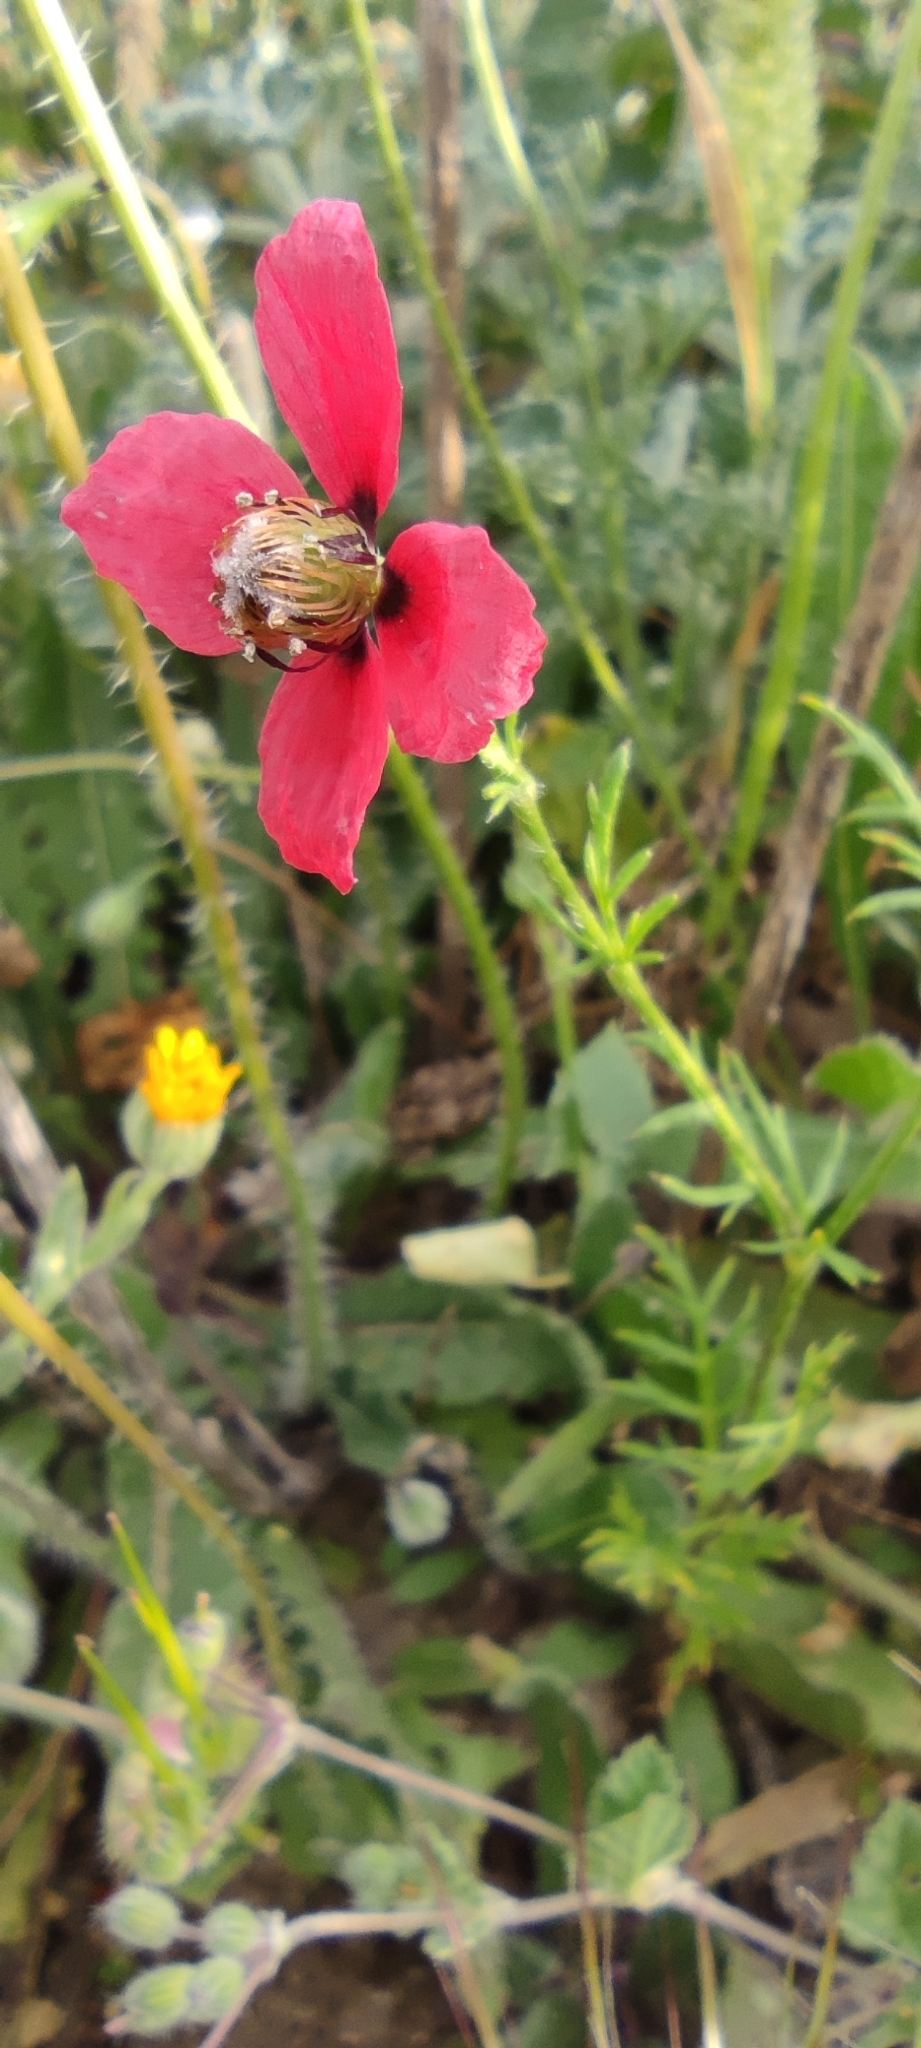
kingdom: Plantae
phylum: Tracheophyta
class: Magnoliopsida
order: Ranunculales
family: Papaveraceae
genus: Roemeria
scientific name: Roemeria hispida
